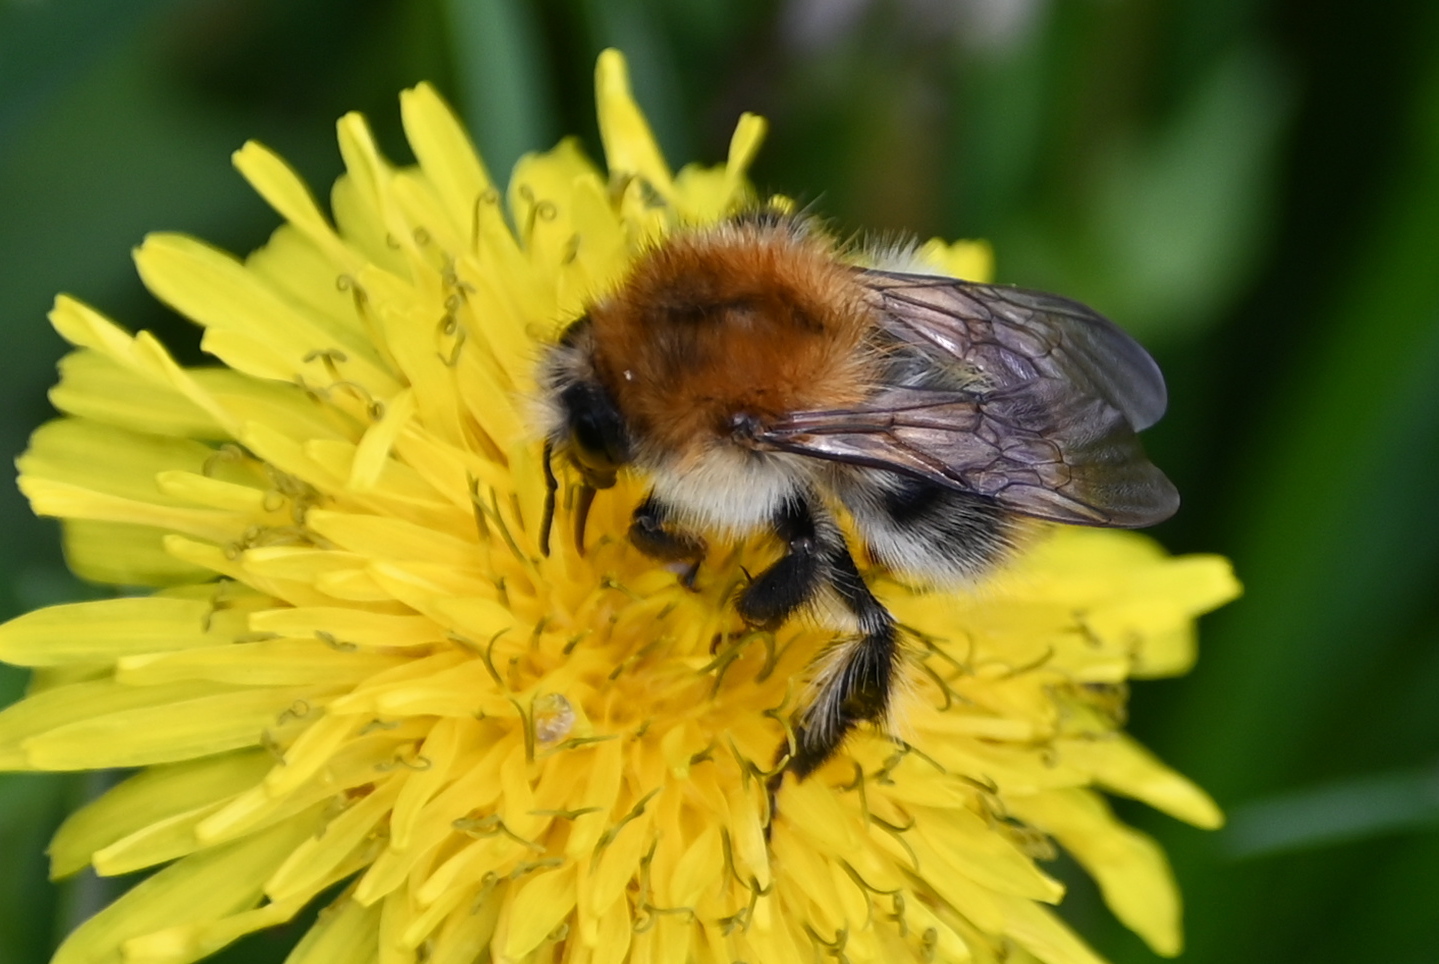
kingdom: Animalia
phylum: Arthropoda
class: Insecta
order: Hymenoptera
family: Apidae
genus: Bombus
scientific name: Bombus pascuorum
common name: Common carder bee
